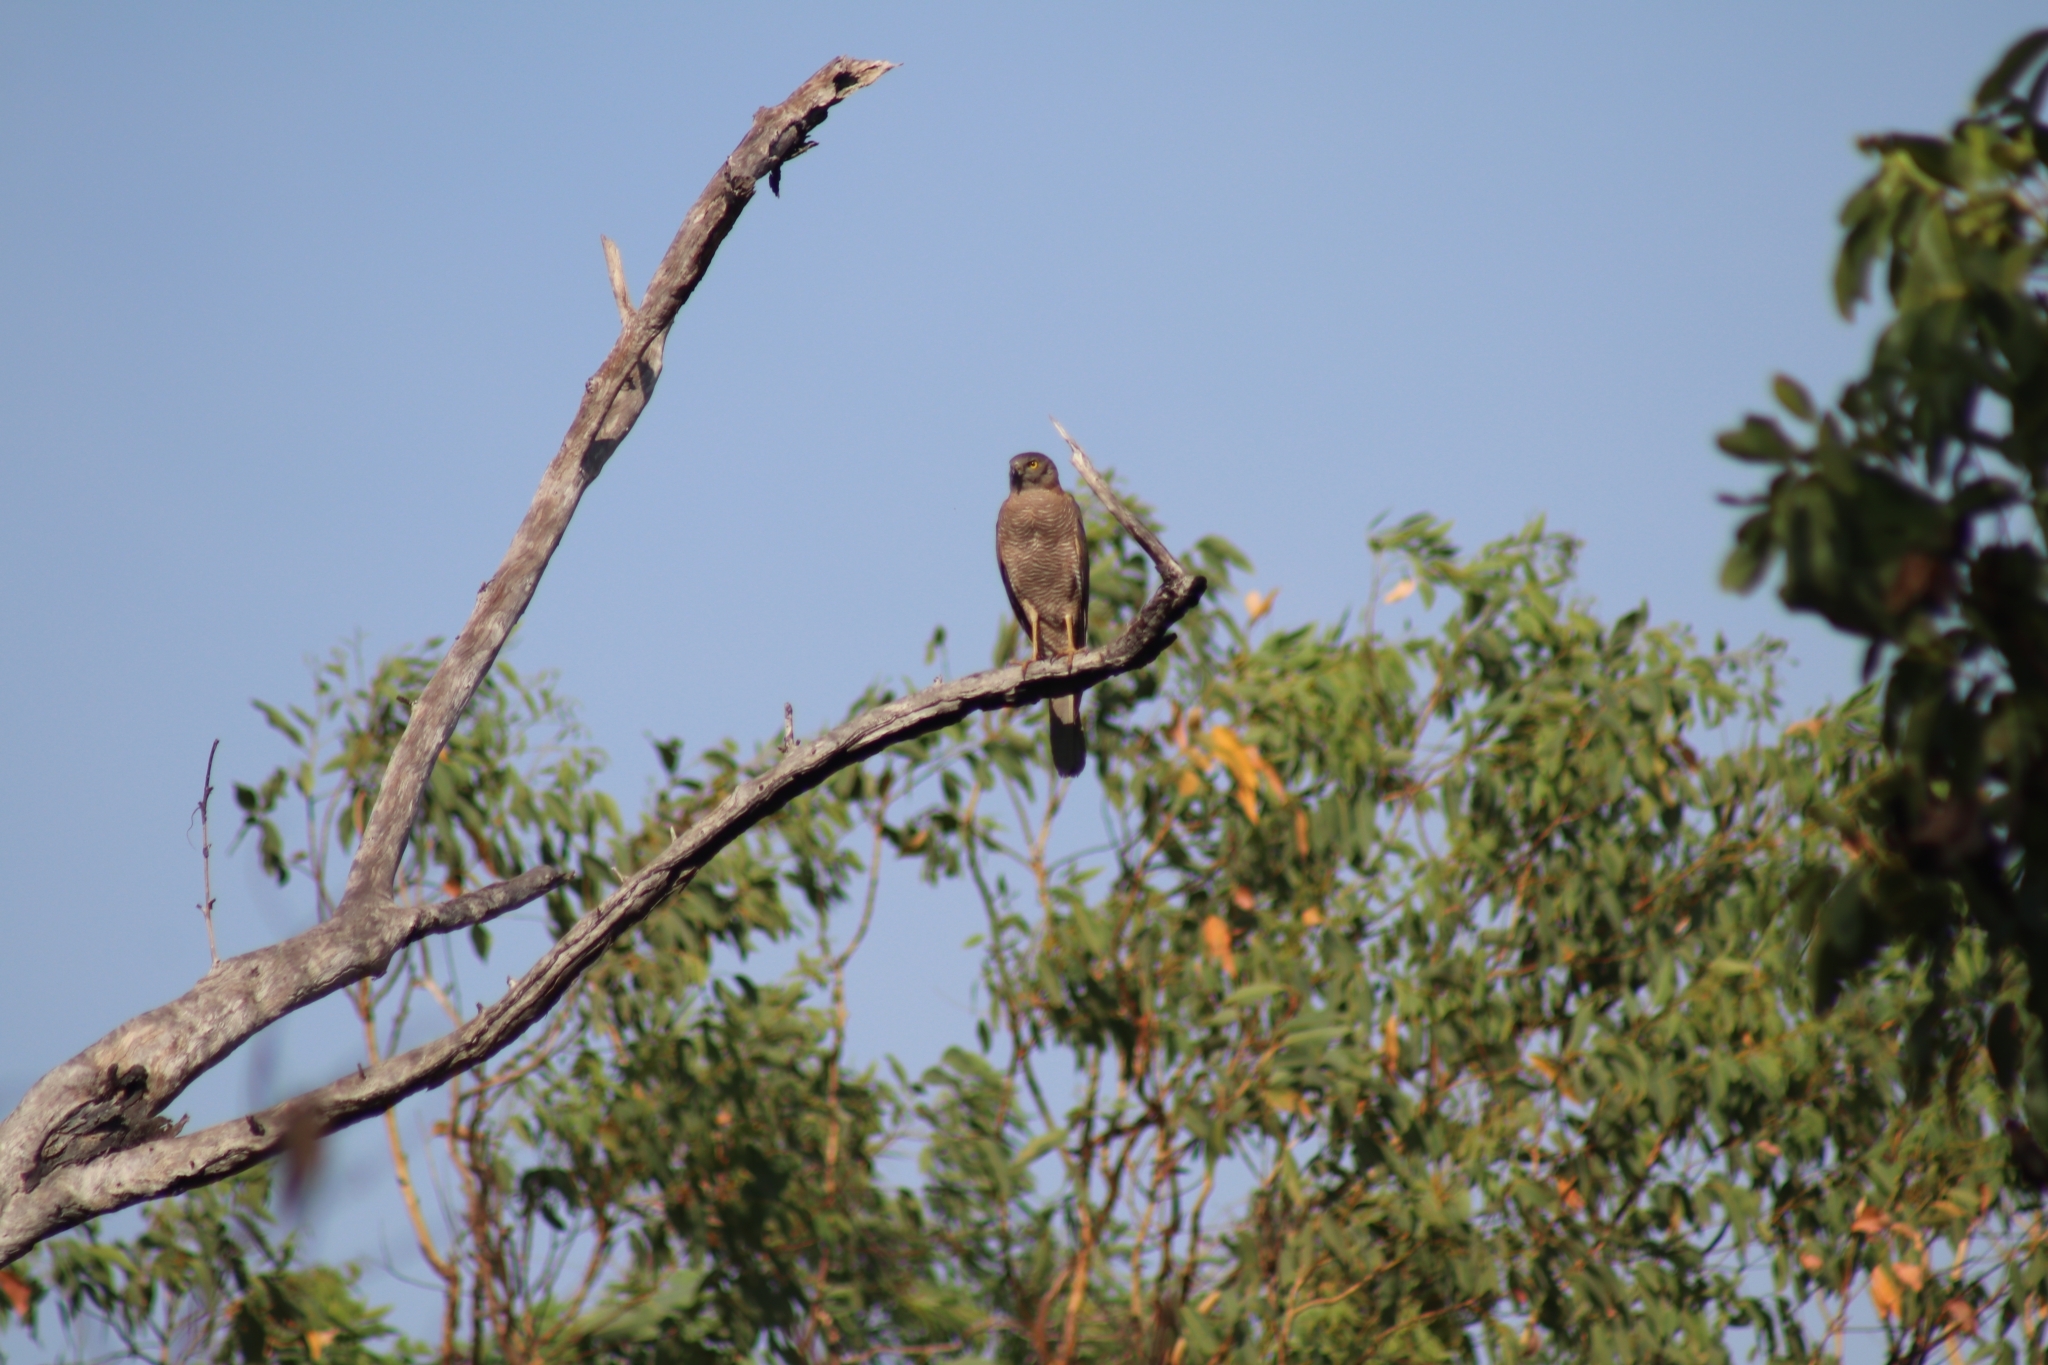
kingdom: Animalia
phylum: Chordata
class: Aves
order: Accipitriformes
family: Accipitridae
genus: Accipiter
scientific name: Accipiter fasciatus
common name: Brown goshawk
